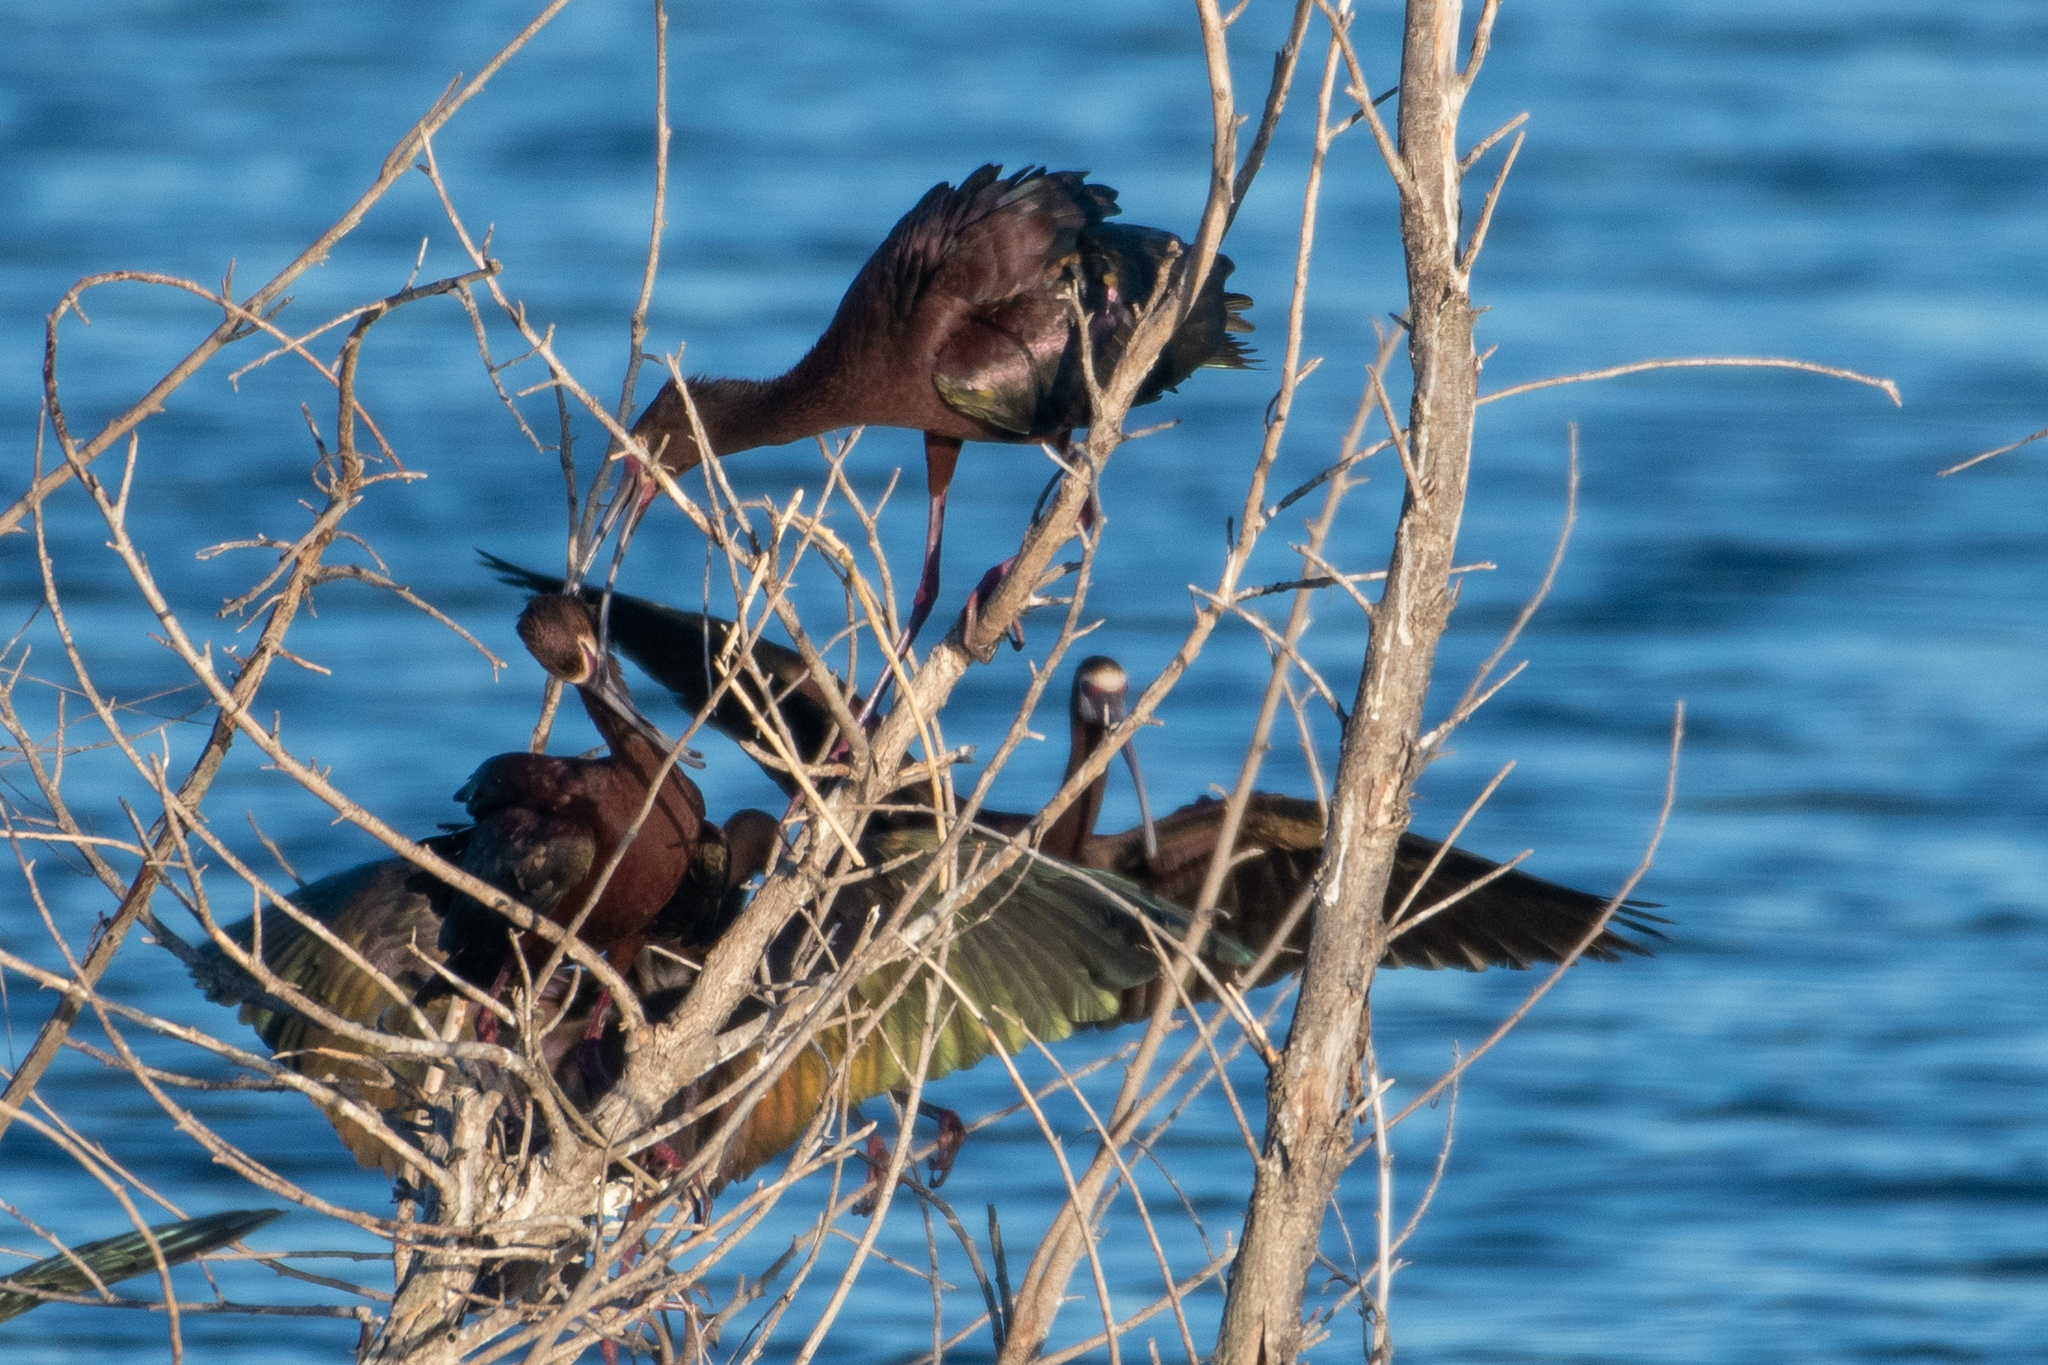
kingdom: Animalia
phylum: Chordata
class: Aves
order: Pelecaniformes
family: Threskiornithidae
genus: Plegadis
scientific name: Plegadis chihi
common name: White-faced ibis
